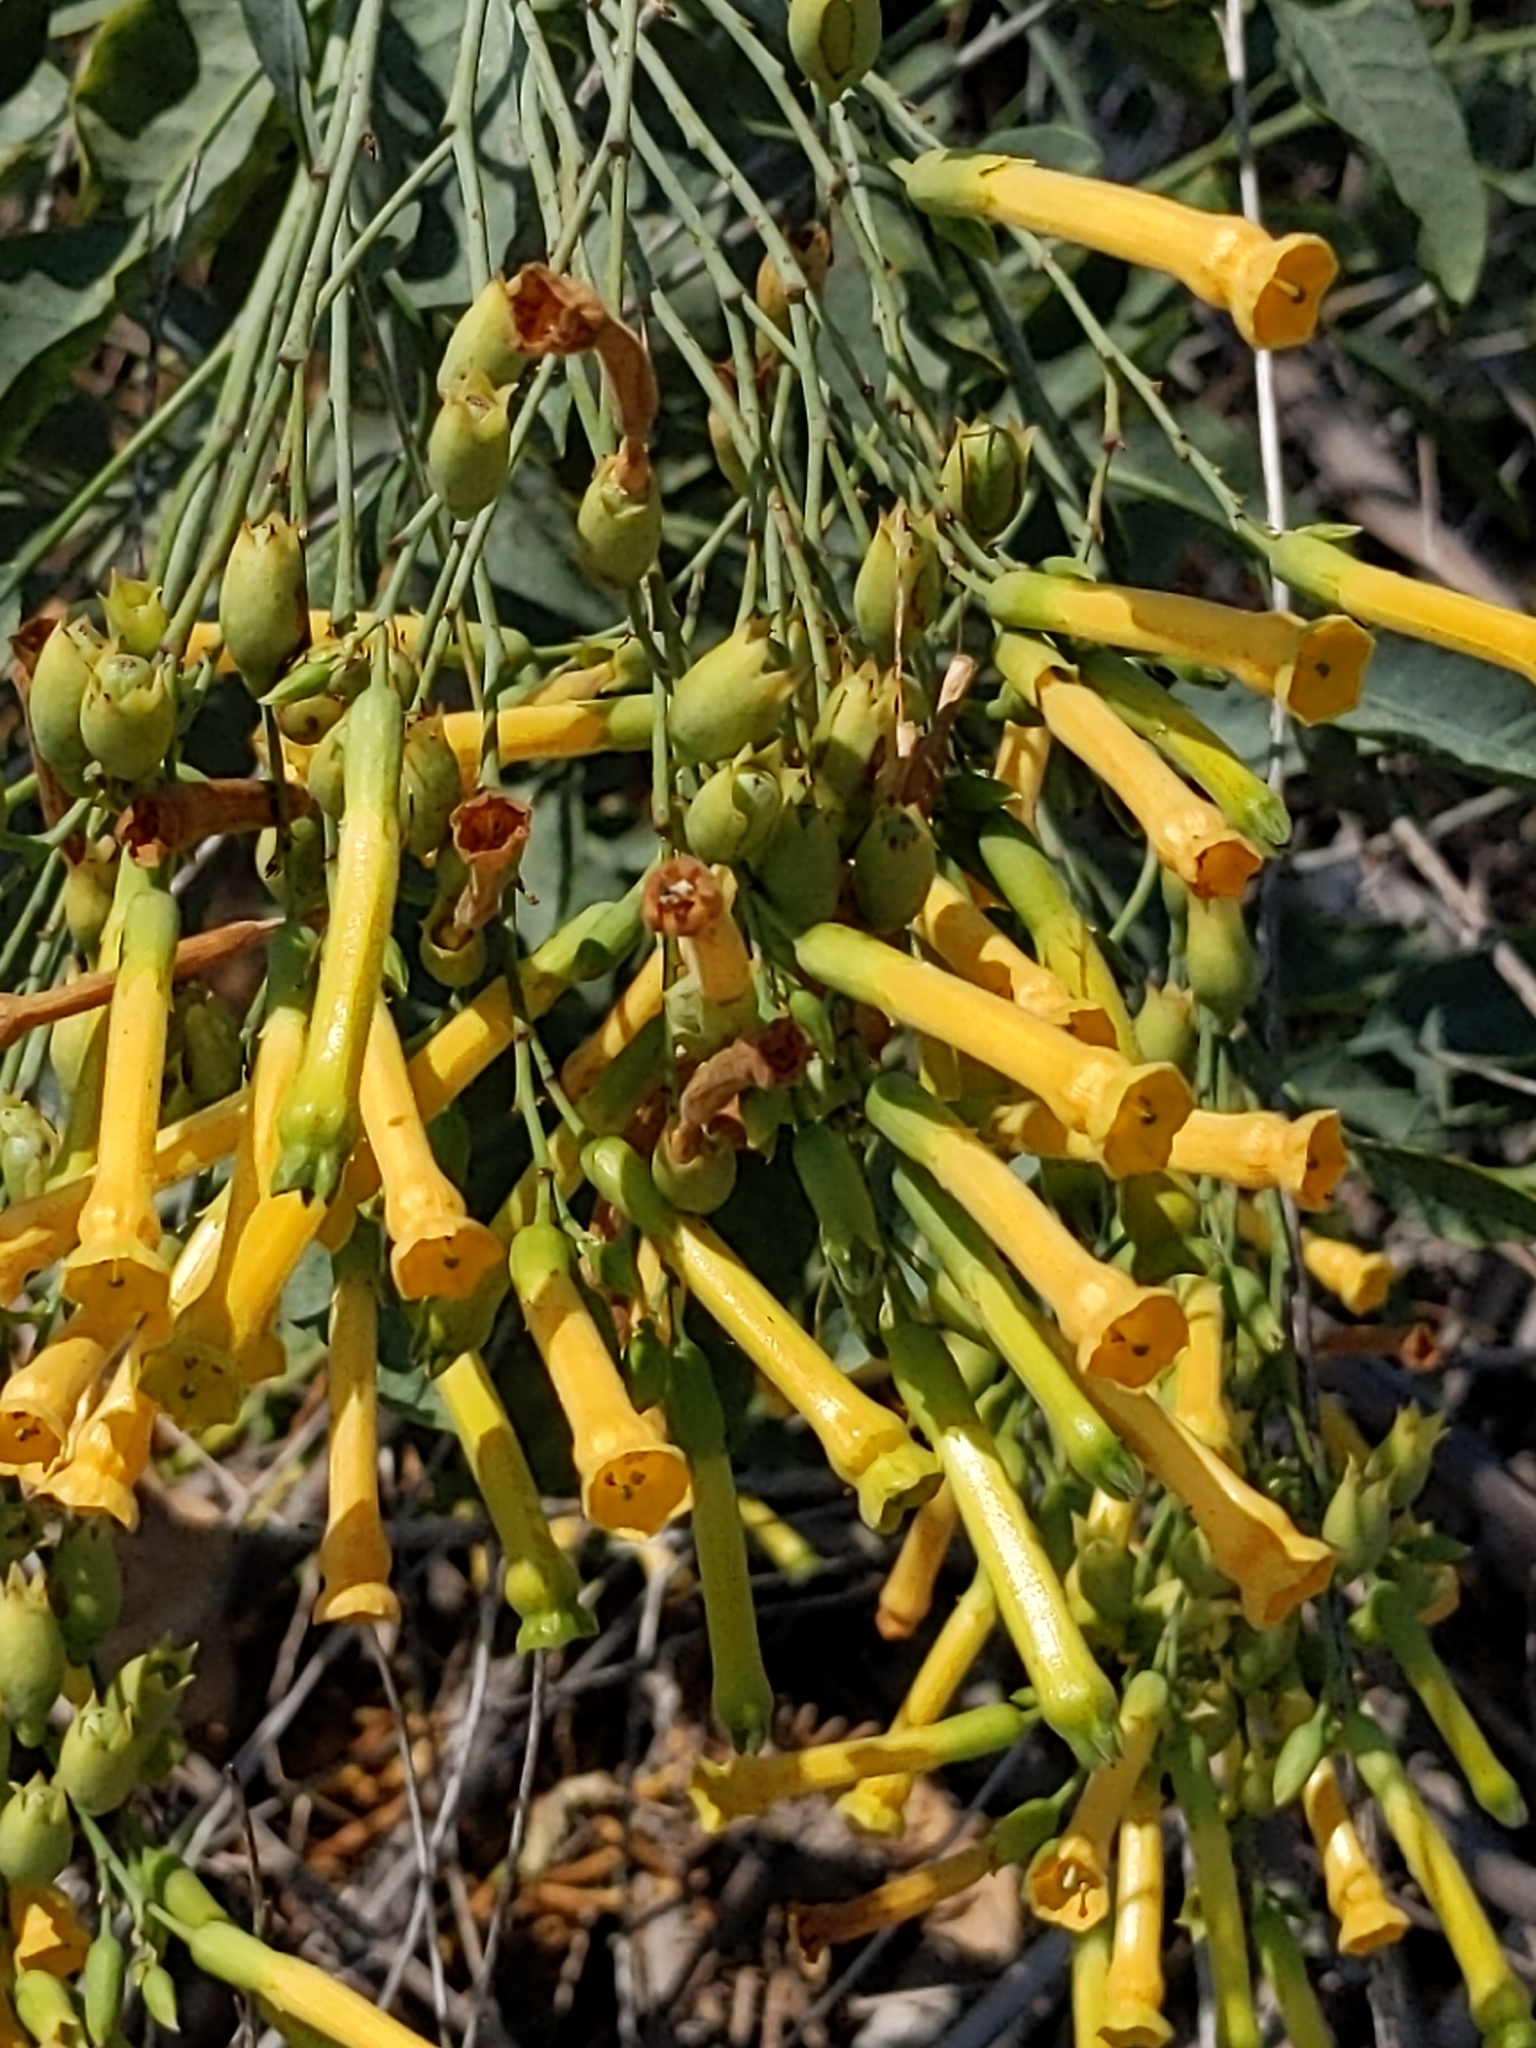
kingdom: Plantae
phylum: Tracheophyta
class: Magnoliopsida
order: Solanales
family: Solanaceae
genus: Nicotiana
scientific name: Nicotiana glauca
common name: Tree tobacco
